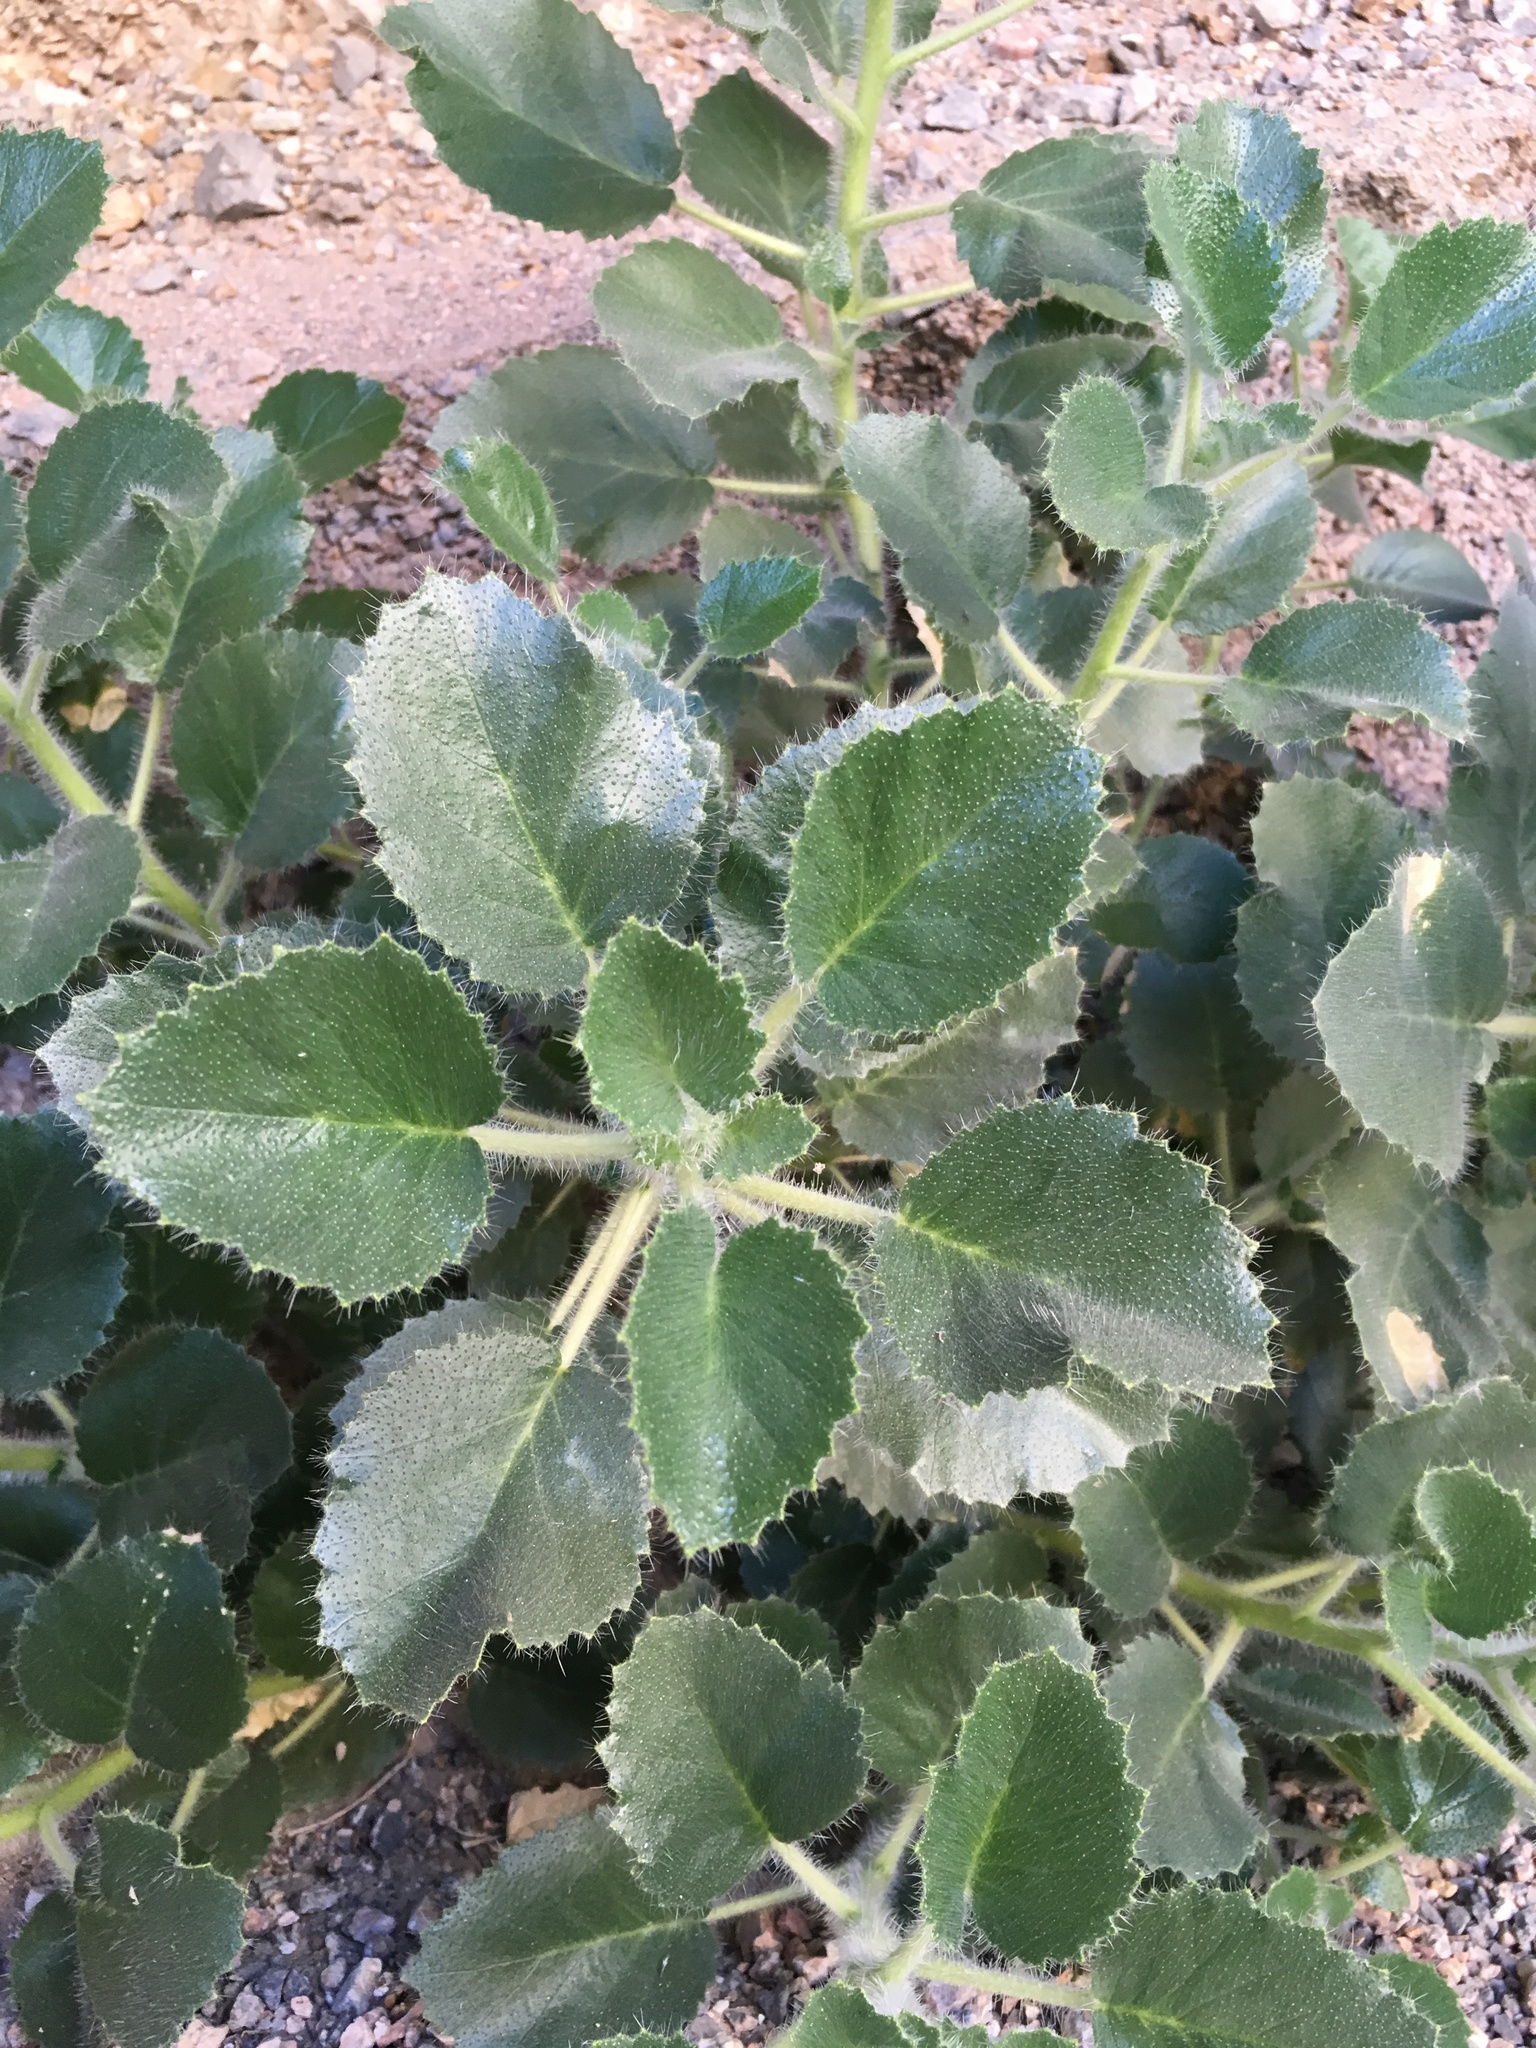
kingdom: Plantae
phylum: Tracheophyta
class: Magnoliopsida
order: Cornales
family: Loasaceae
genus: Eucnide
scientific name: Eucnide urens
